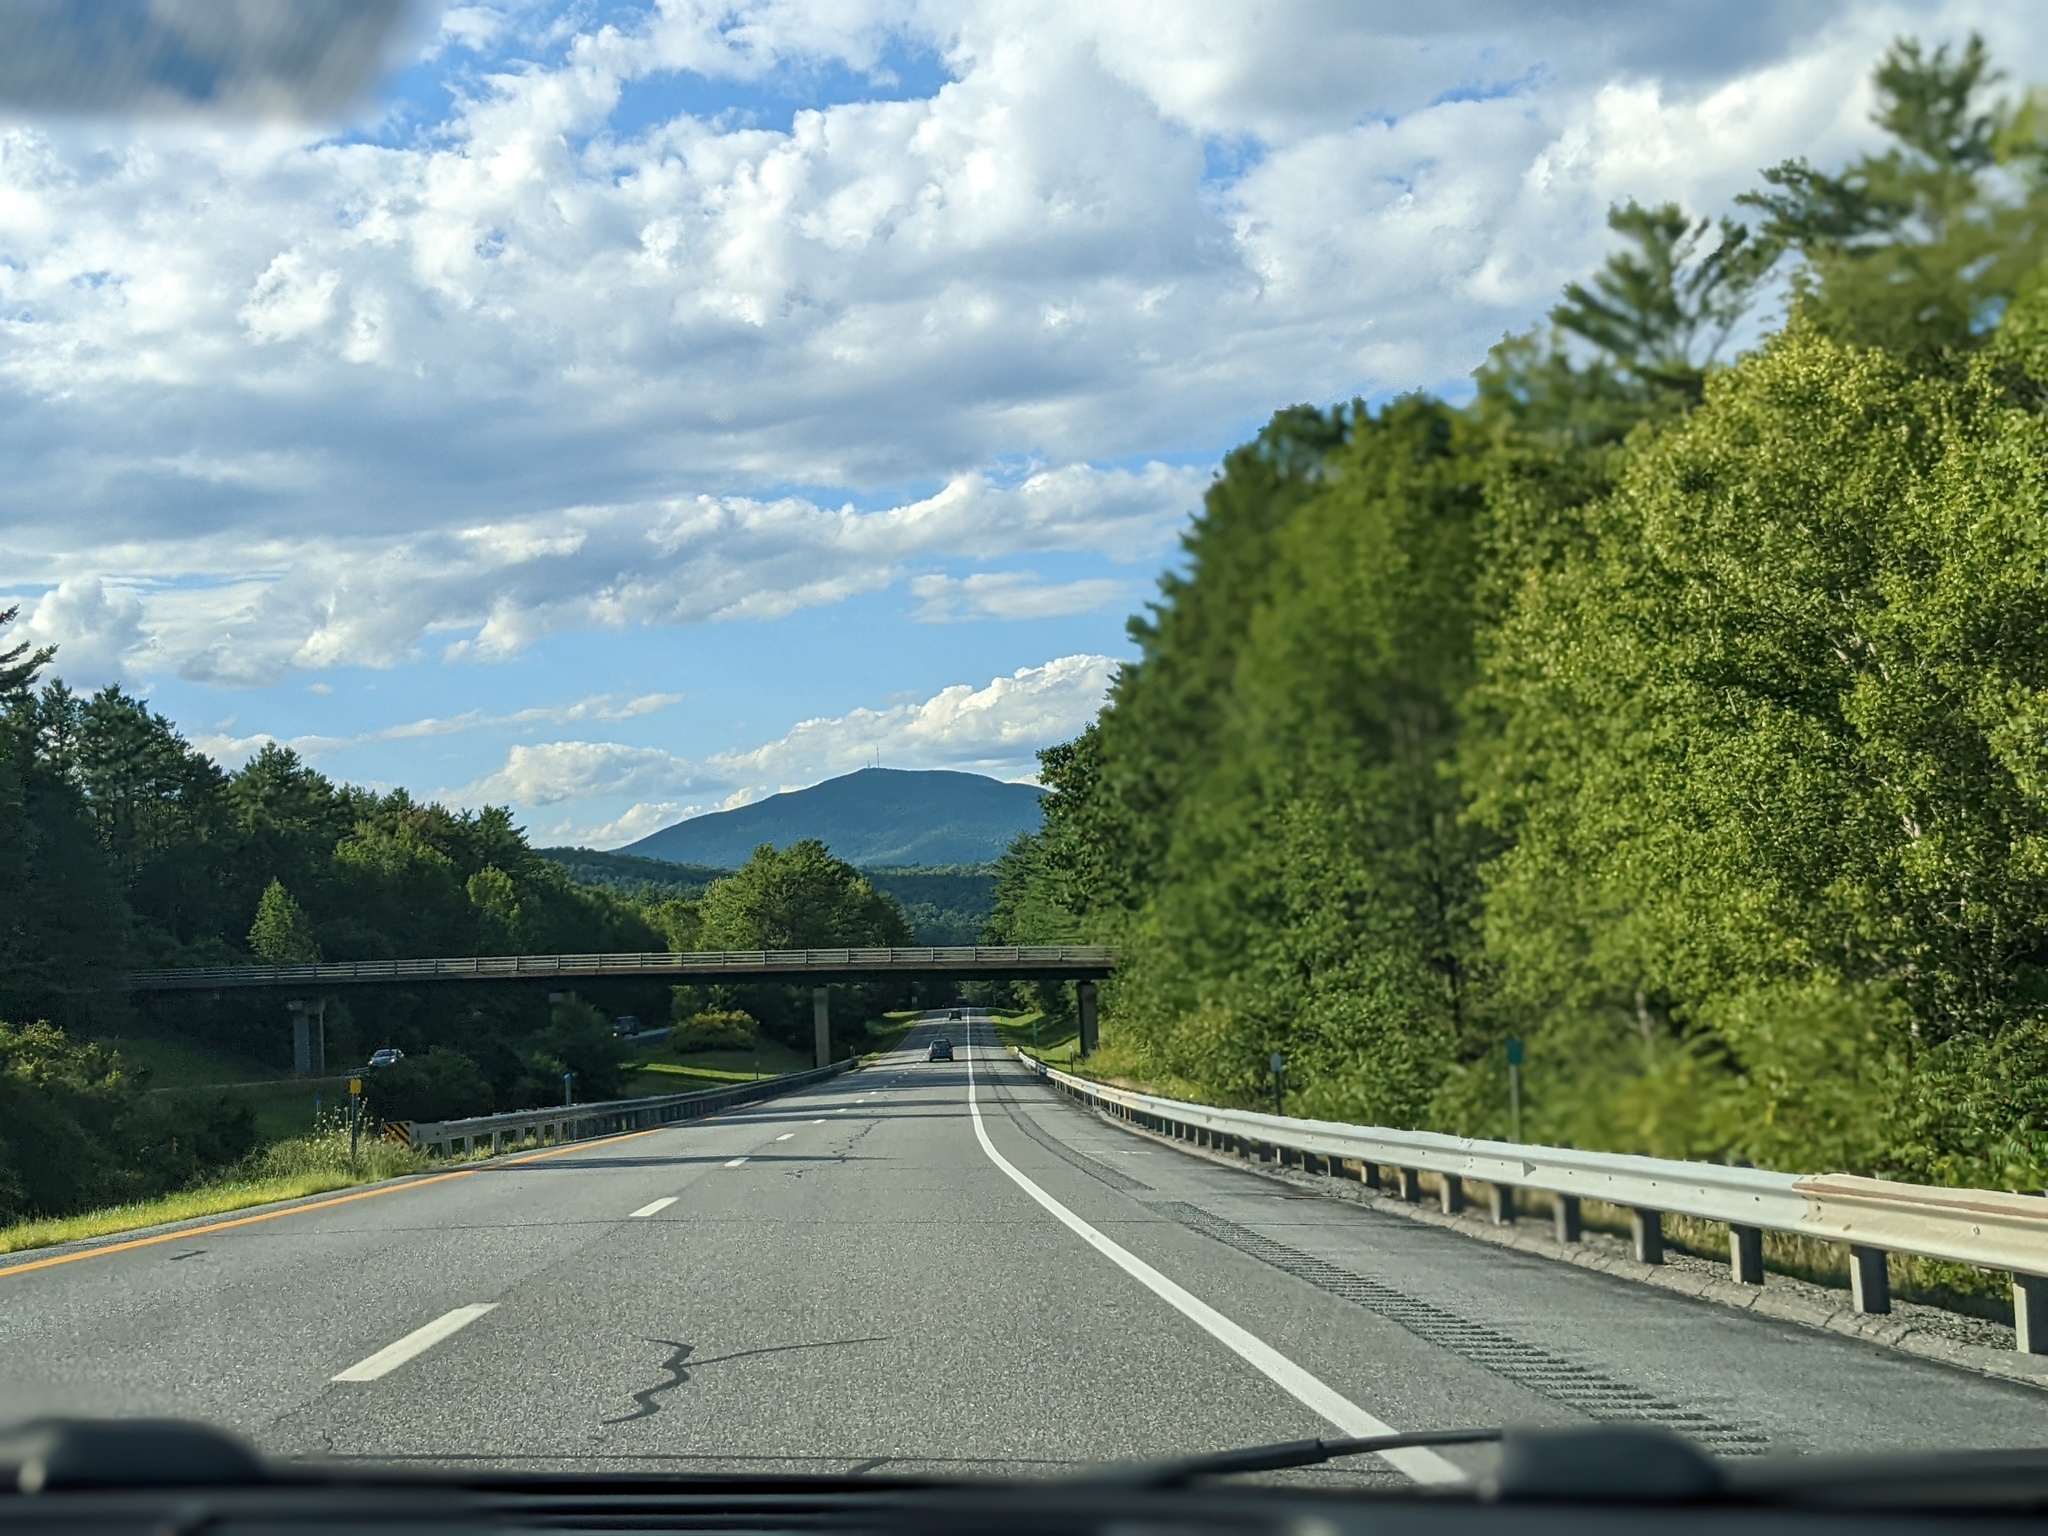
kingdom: Plantae
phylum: Tracheophyta
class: Pinopsida
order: Pinales
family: Pinaceae
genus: Pinus
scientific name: Pinus strobus
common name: Weymouth pine
